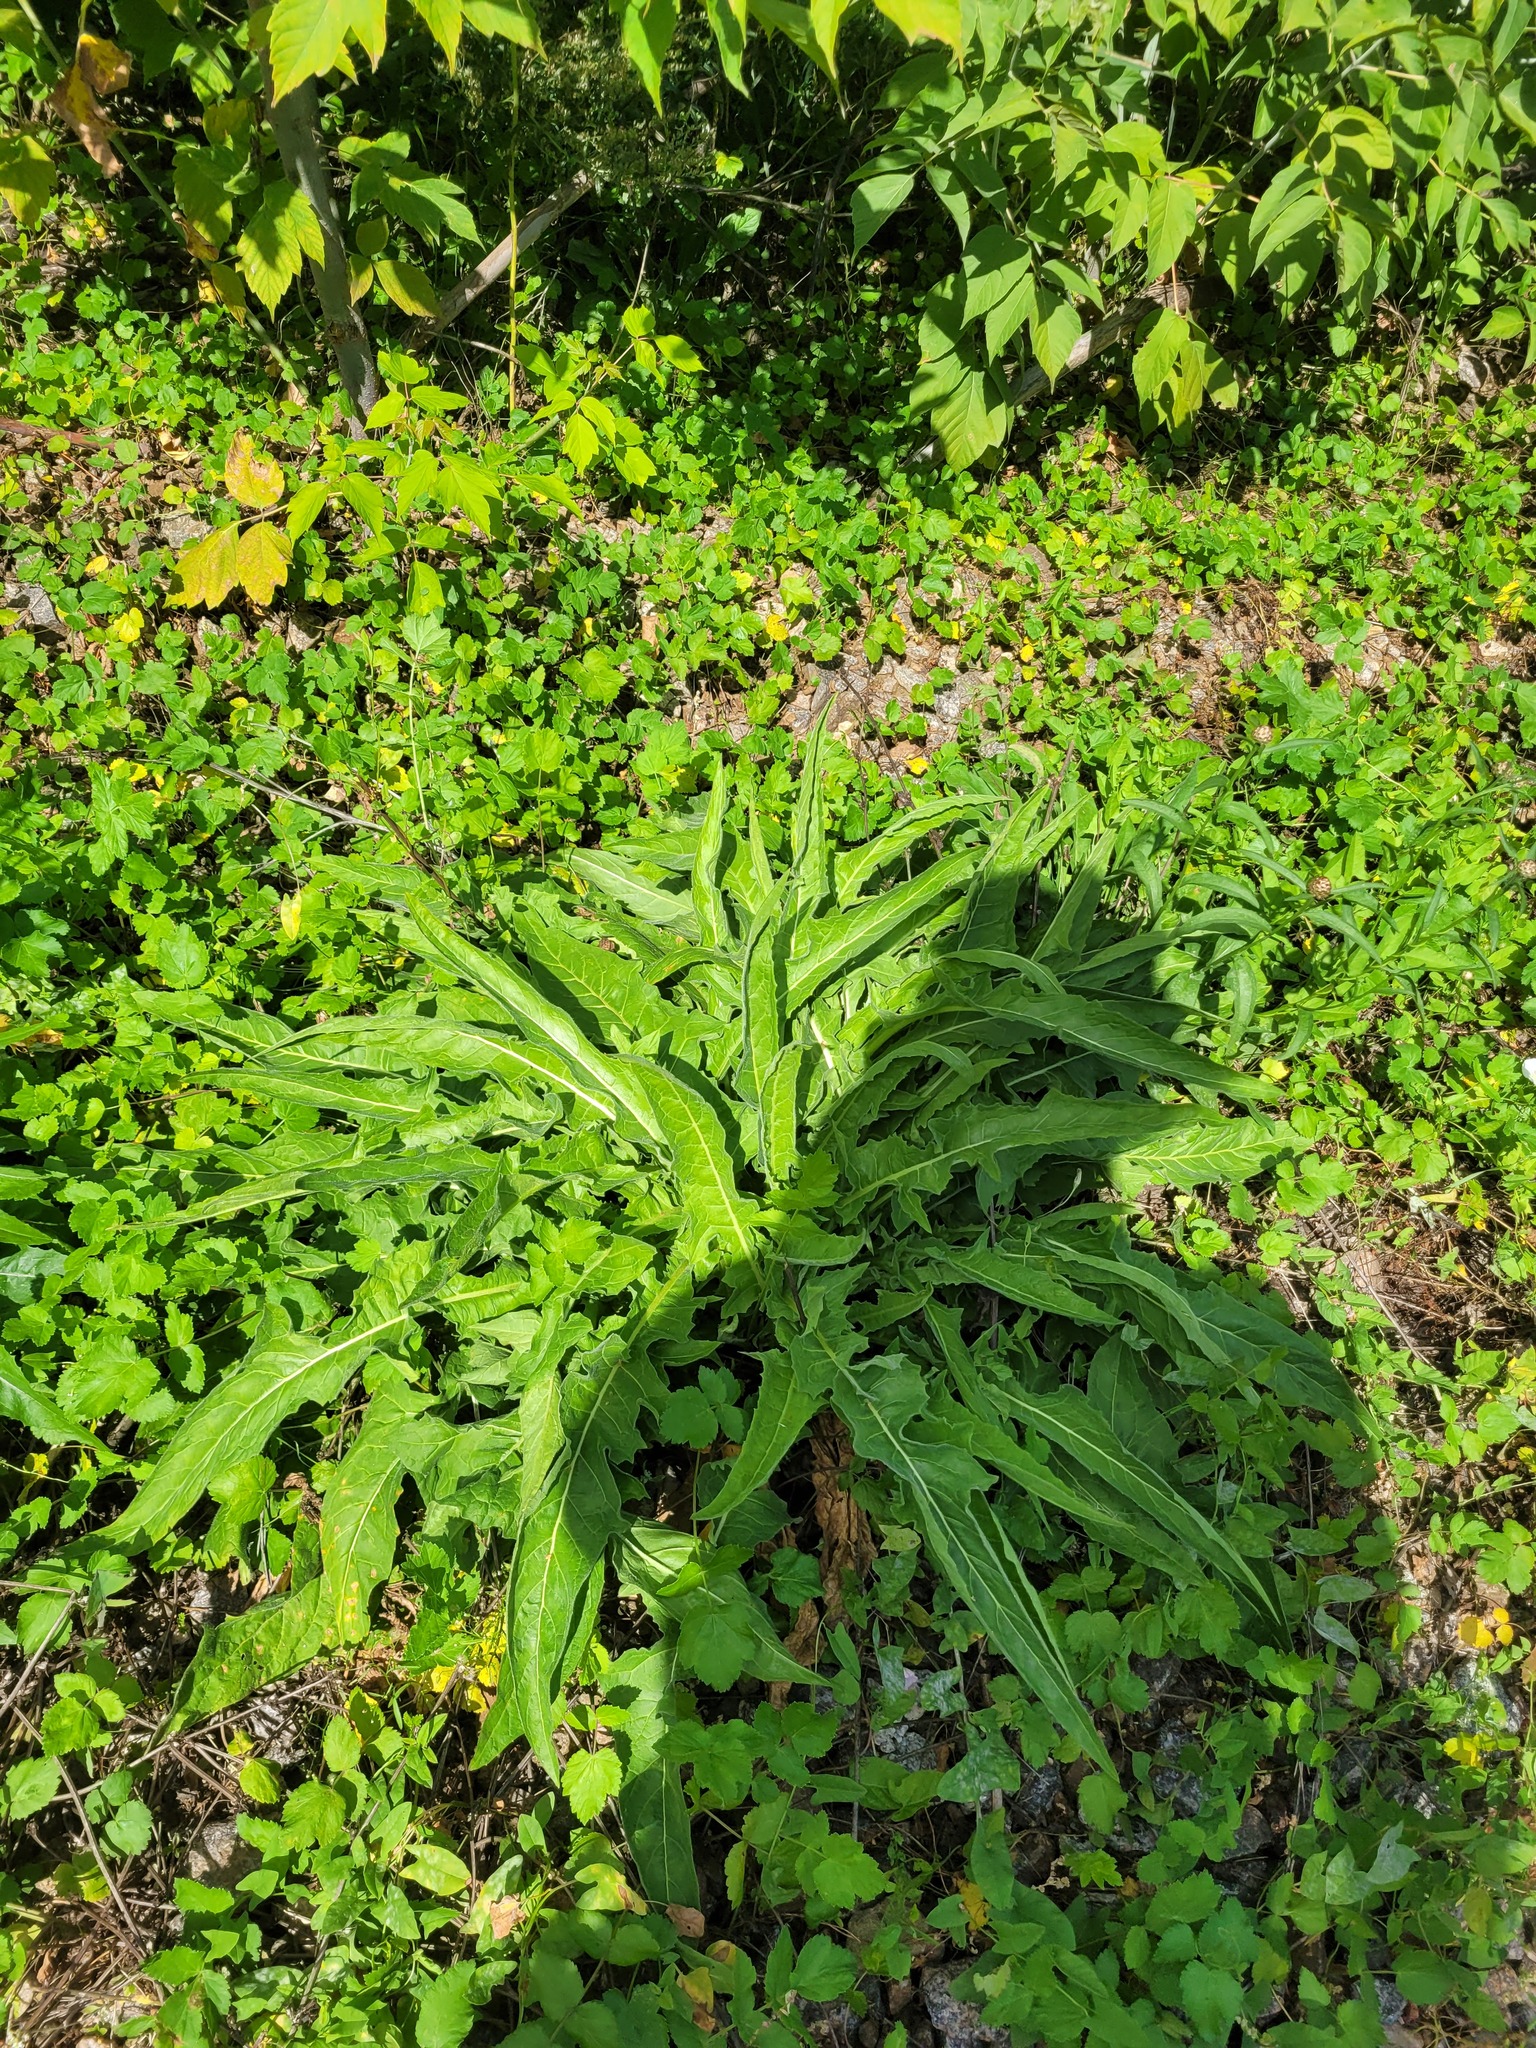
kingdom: Plantae
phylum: Tracheophyta
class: Magnoliopsida
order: Brassicales
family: Brassicaceae
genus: Bunias
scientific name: Bunias orientalis
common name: Warty-cabbage
